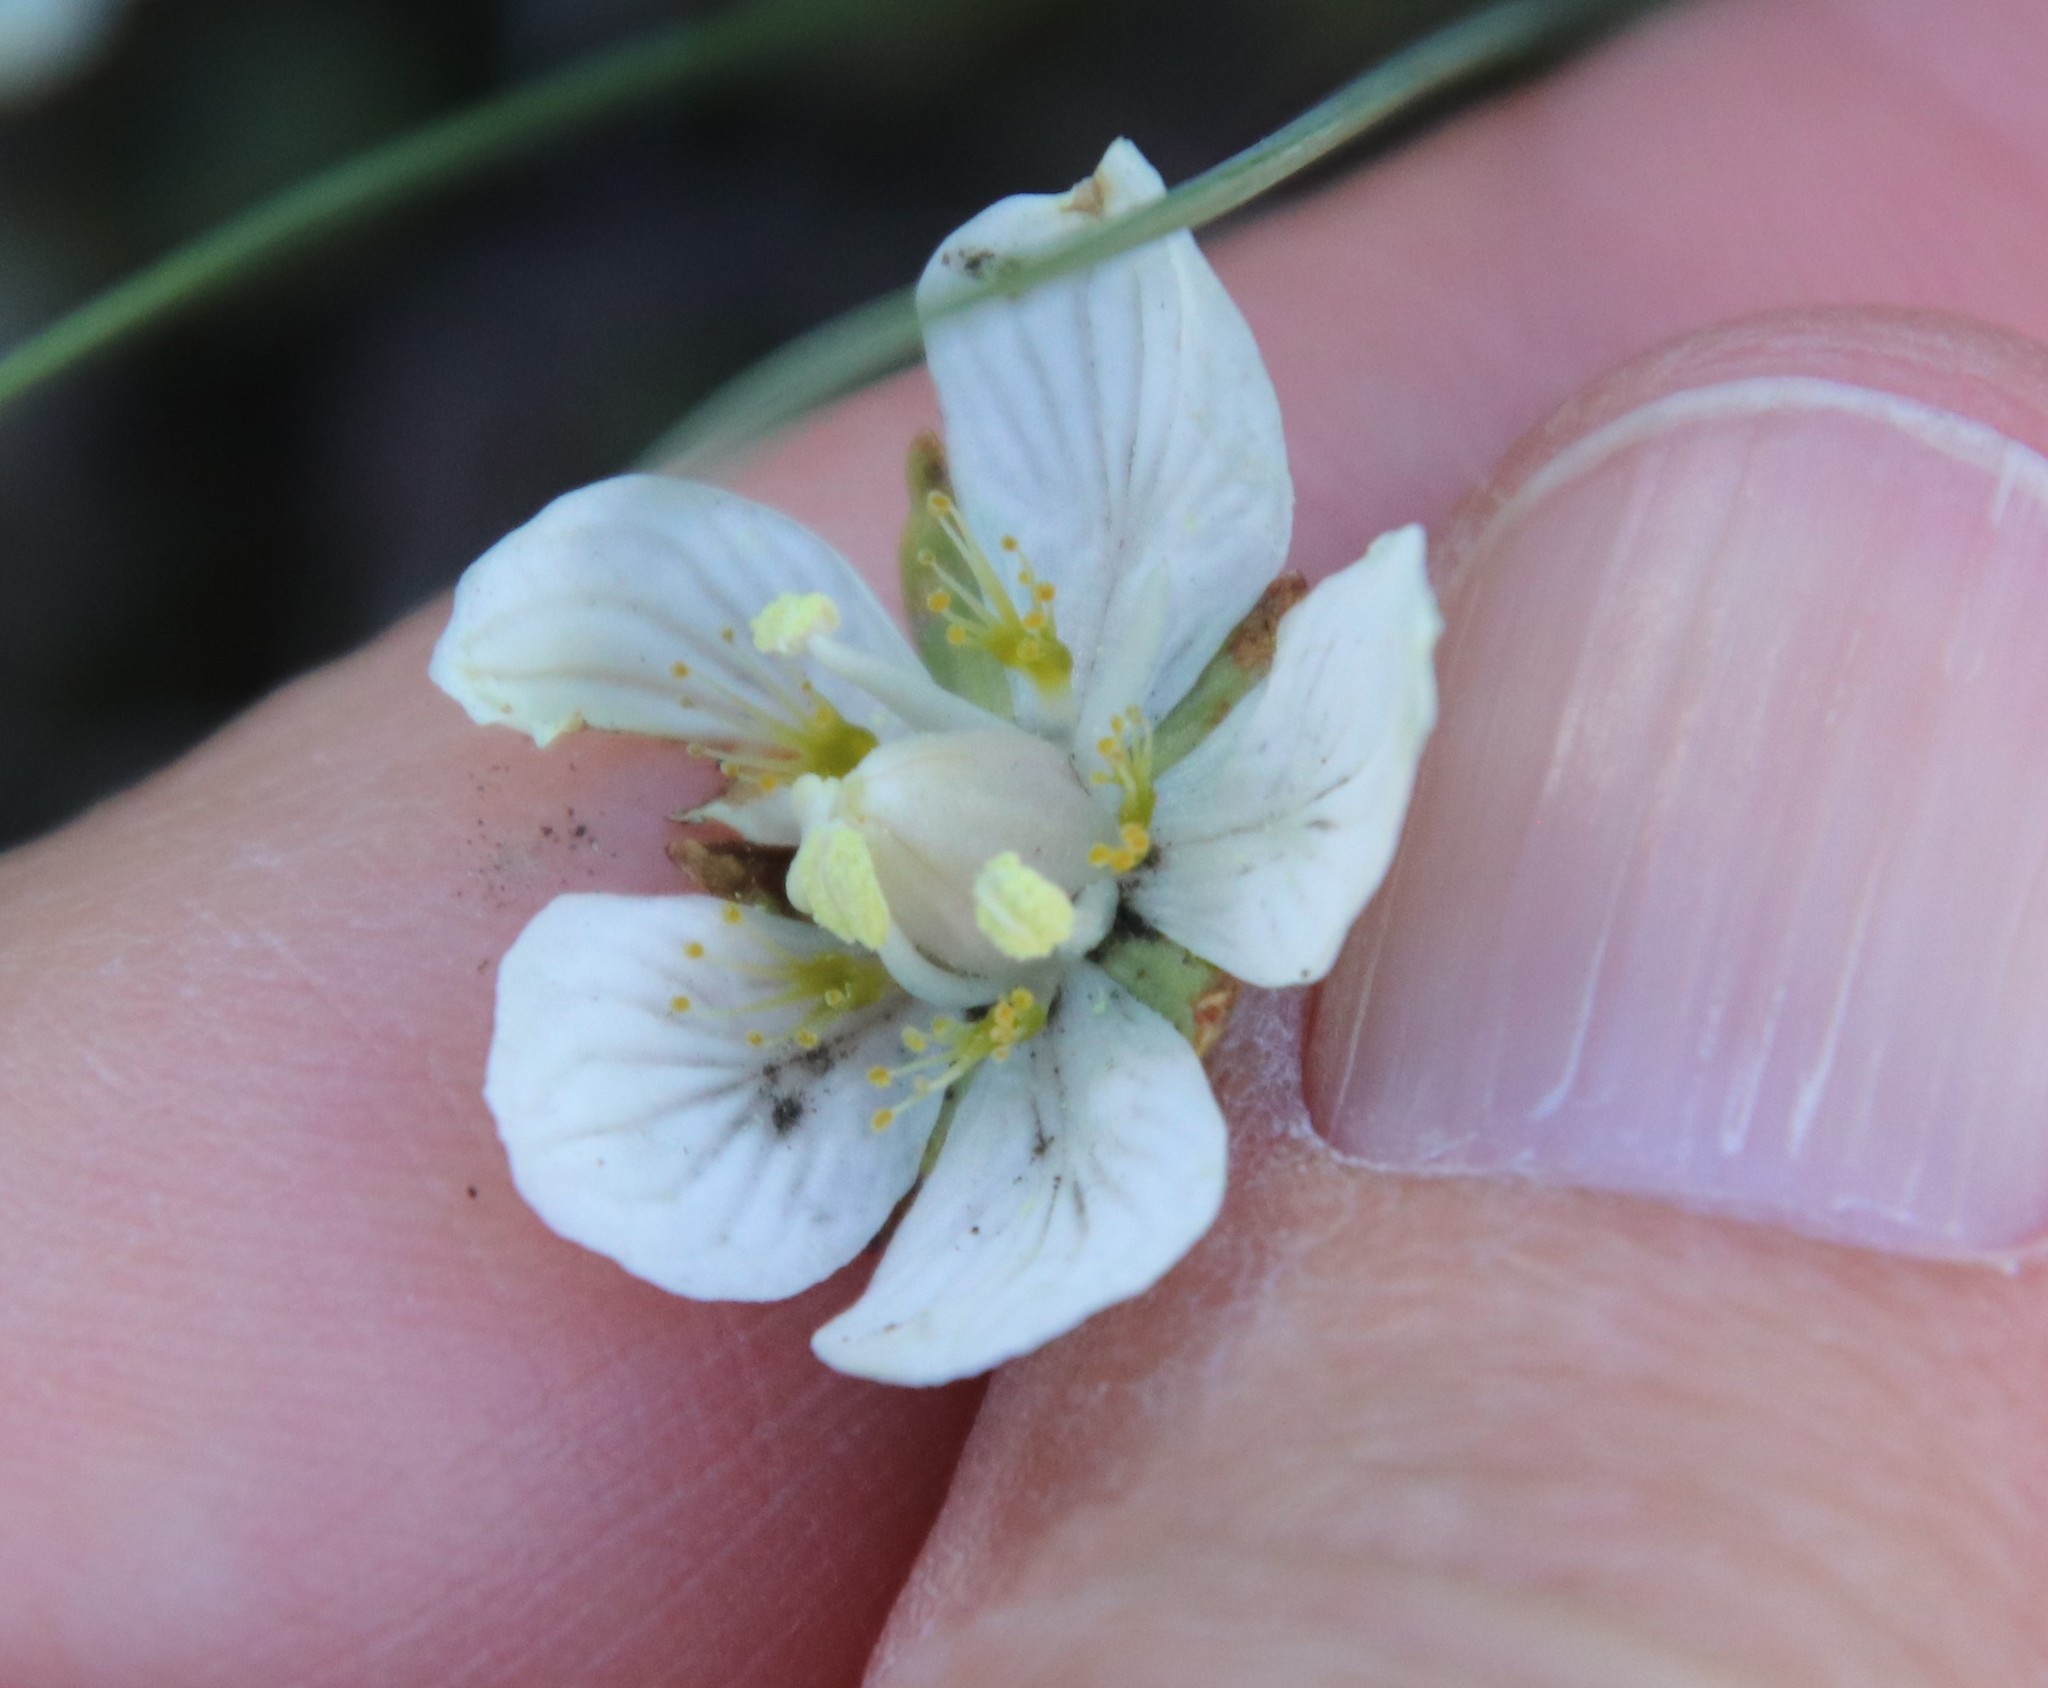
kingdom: Plantae
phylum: Tracheophyta
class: Magnoliopsida
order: Celastrales
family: Parnassiaceae
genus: Parnassia
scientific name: Parnassia palustris
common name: Grass-of-parnassus
